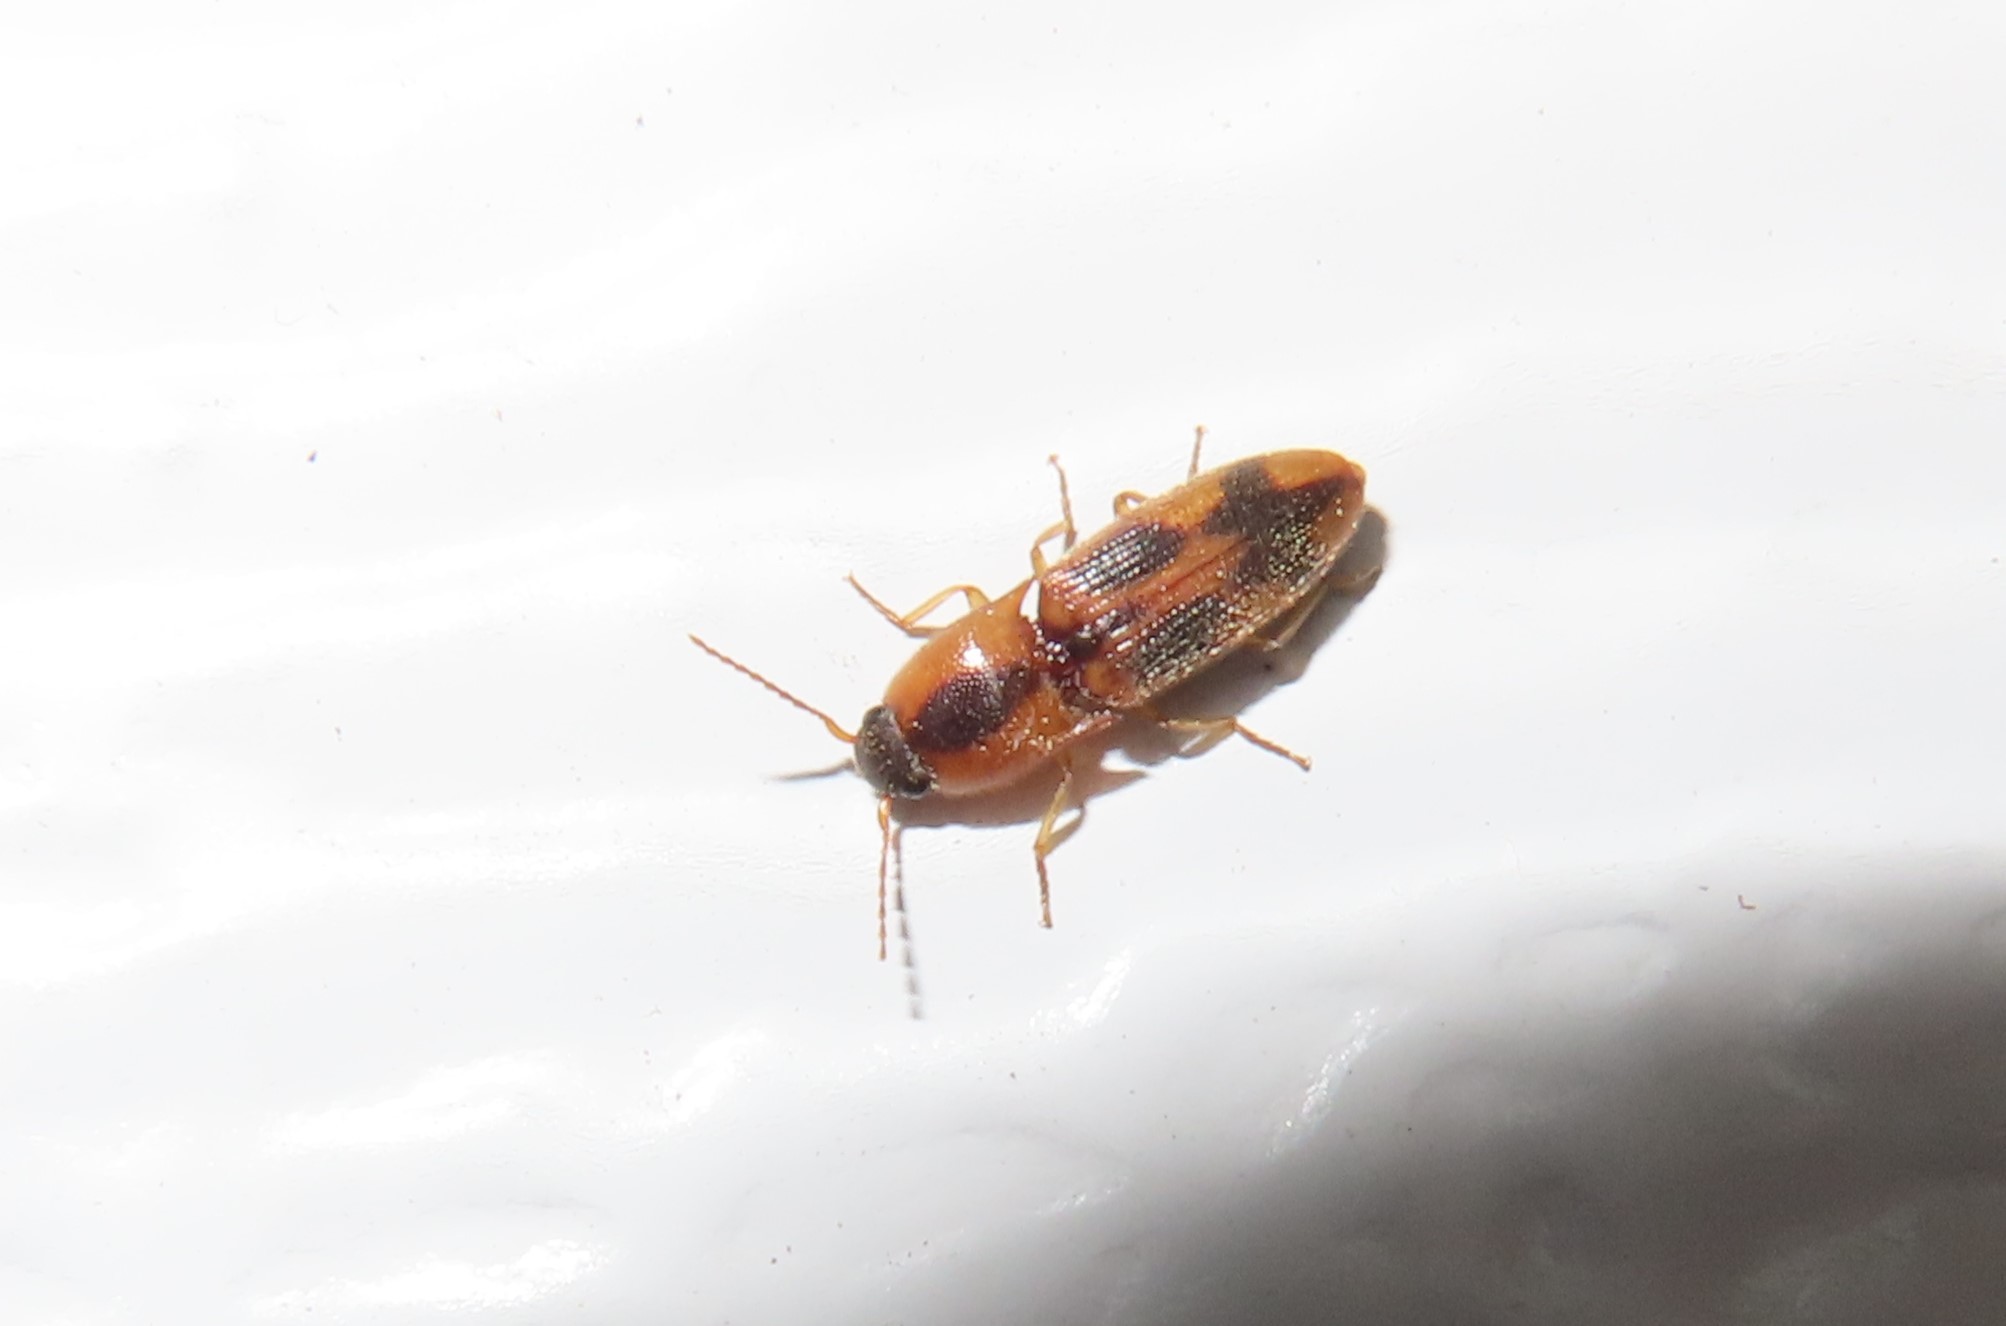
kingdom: Animalia
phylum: Arthropoda
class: Insecta
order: Coleoptera
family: Elateridae
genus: Aeolus
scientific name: Aeolus mellillus
